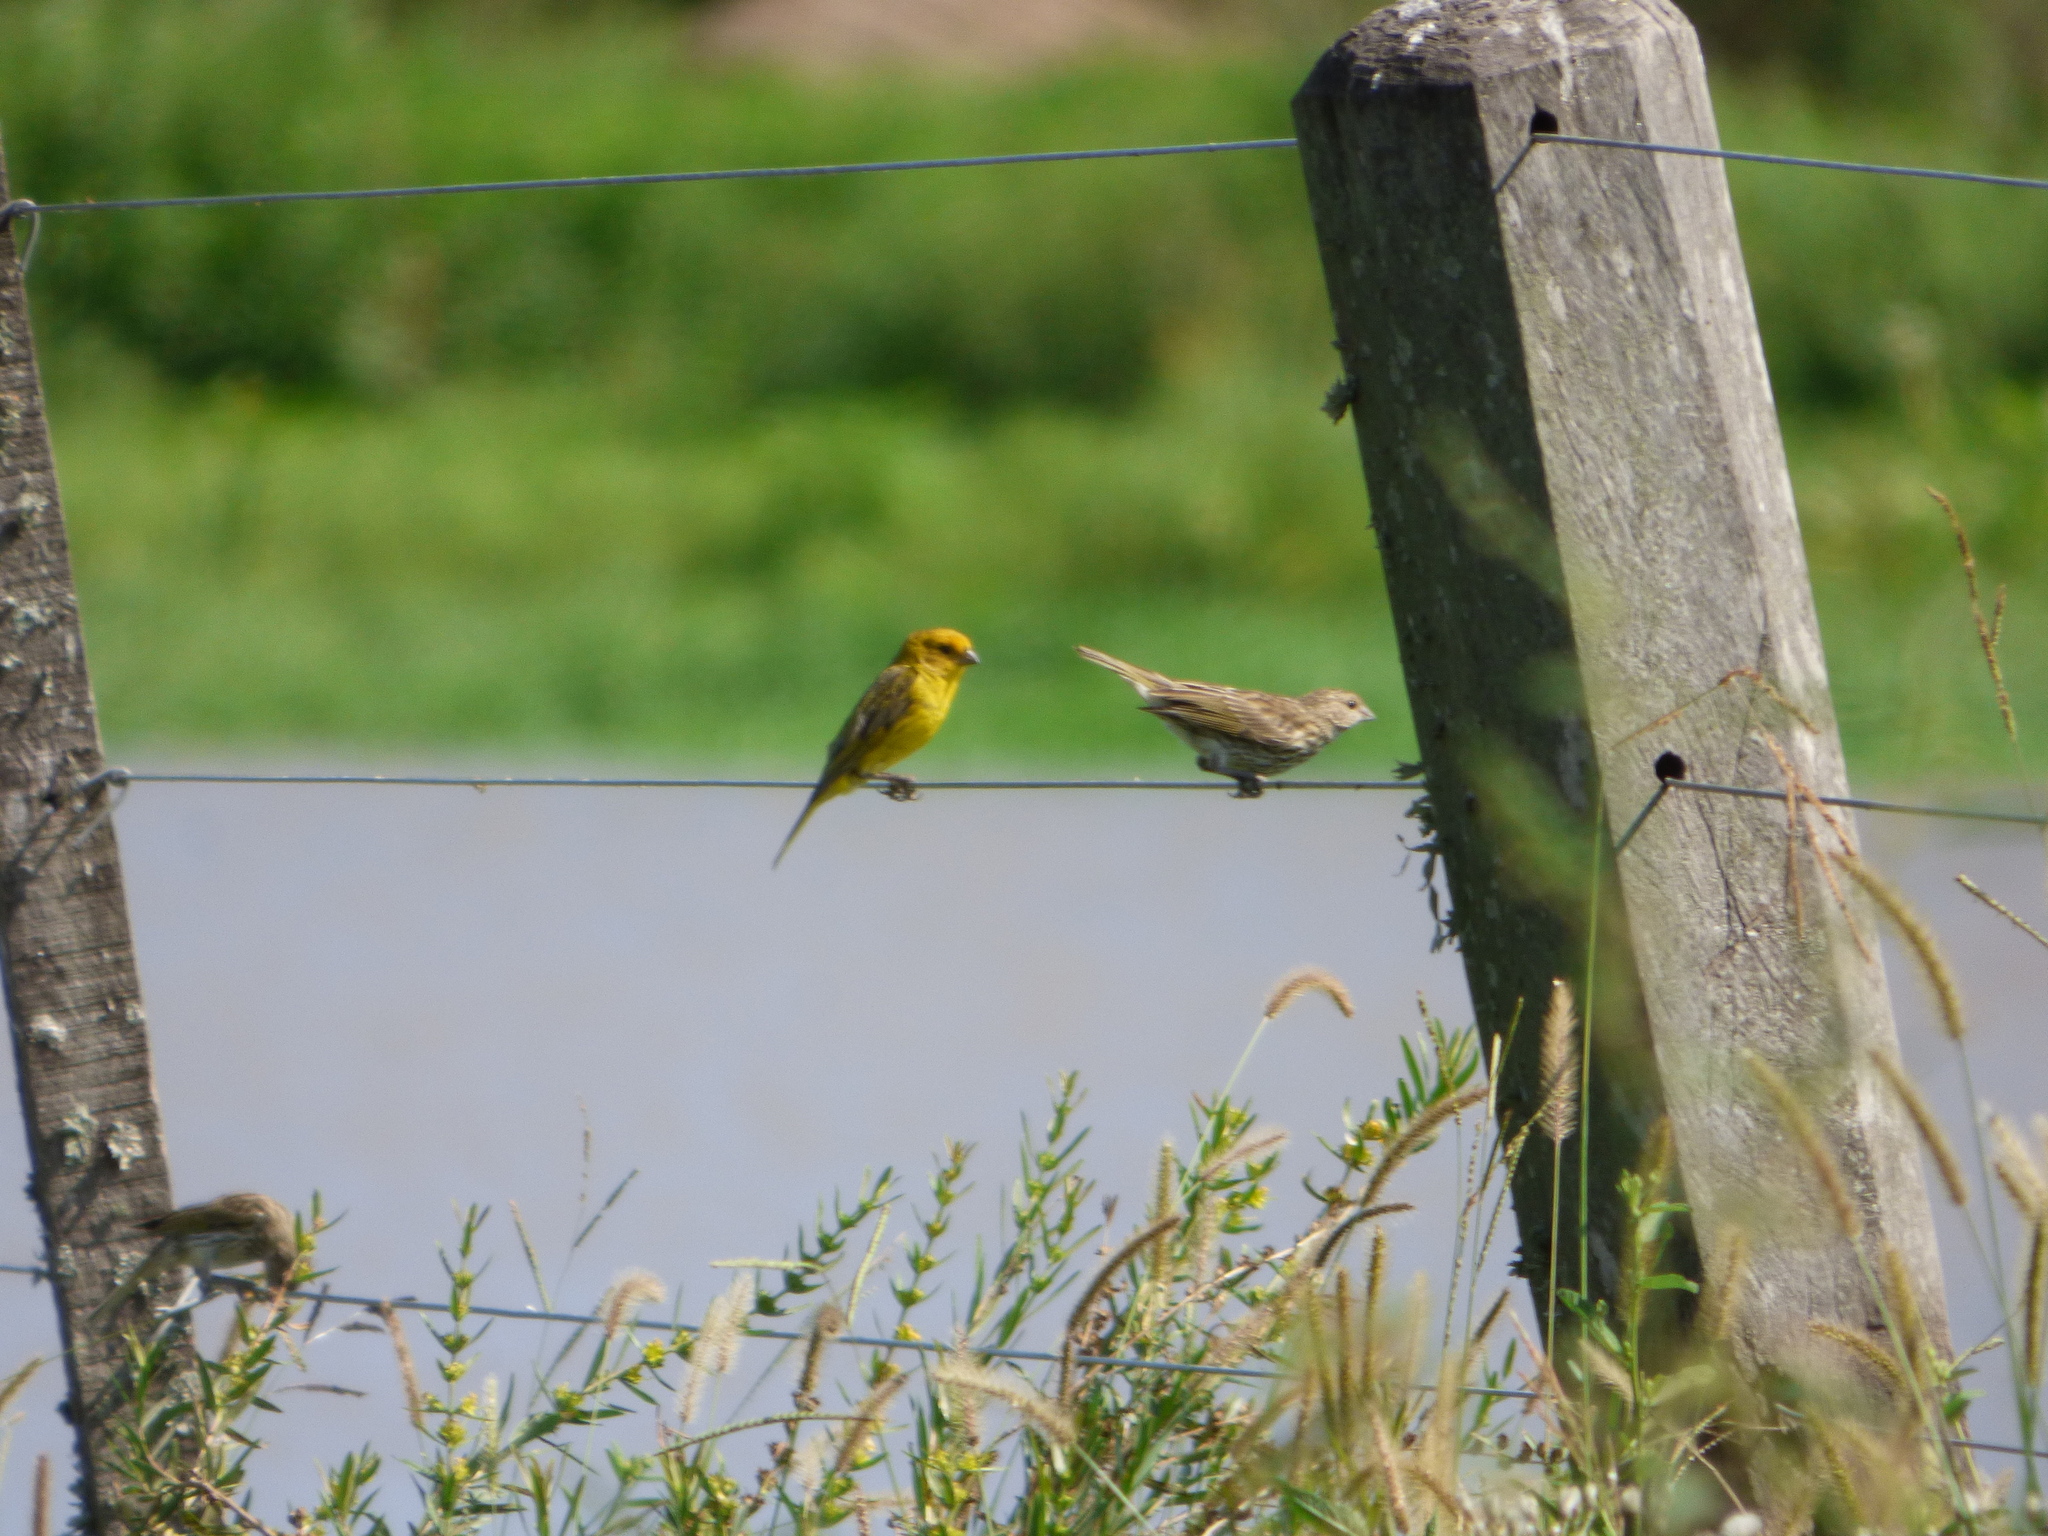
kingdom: Animalia
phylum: Chordata
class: Aves
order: Passeriformes
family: Thraupidae
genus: Sicalis
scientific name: Sicalis flaveola
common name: Saffron finch
